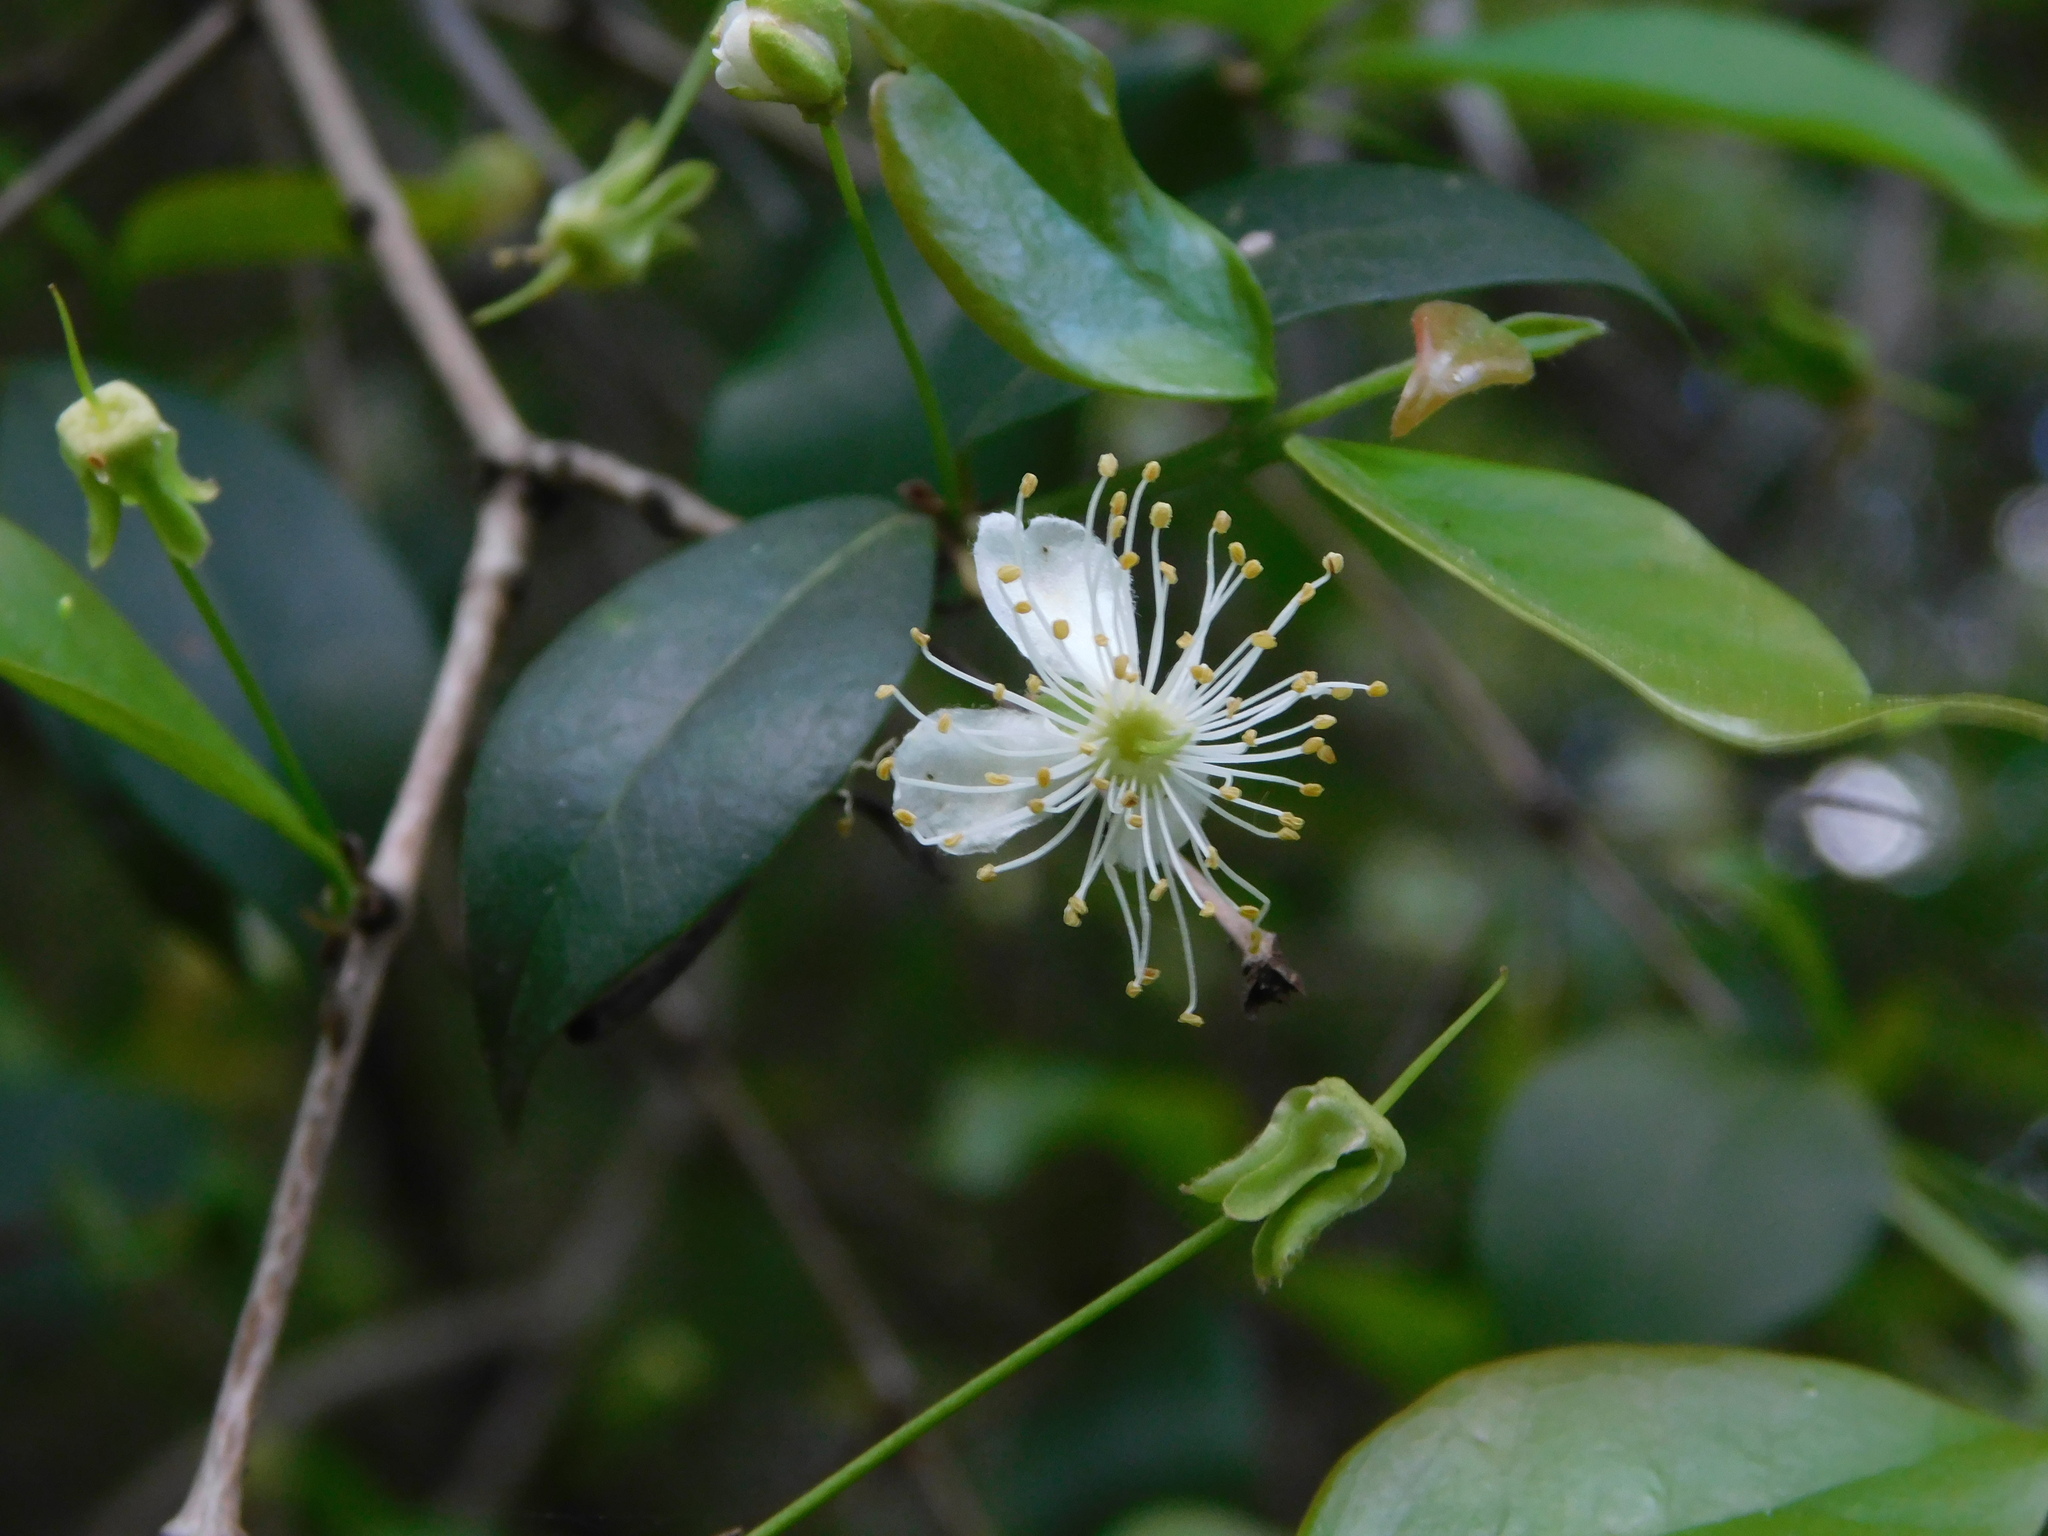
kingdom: Plantae
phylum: Tracheophyta
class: Magnoliopsida
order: Myrtales
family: Myrtaceae
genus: Eugenia
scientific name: Eugenia uruguayensis
